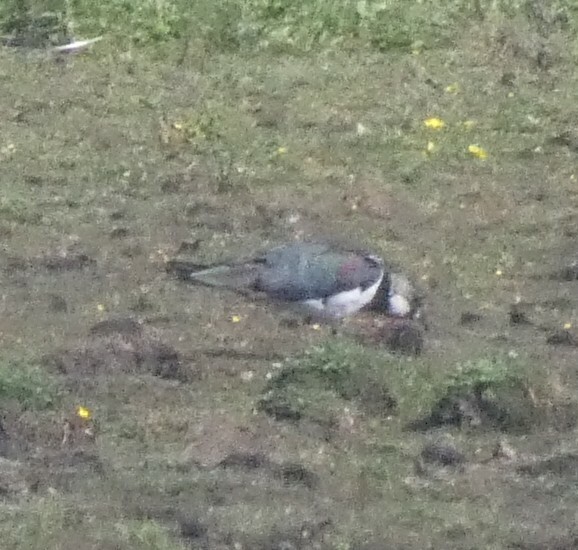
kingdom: Animalia
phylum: Chordata
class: Aves
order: Charadriiformes
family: Charadriidae
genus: Vanellus
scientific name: Vanellus vanellus
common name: Northern lapwing
